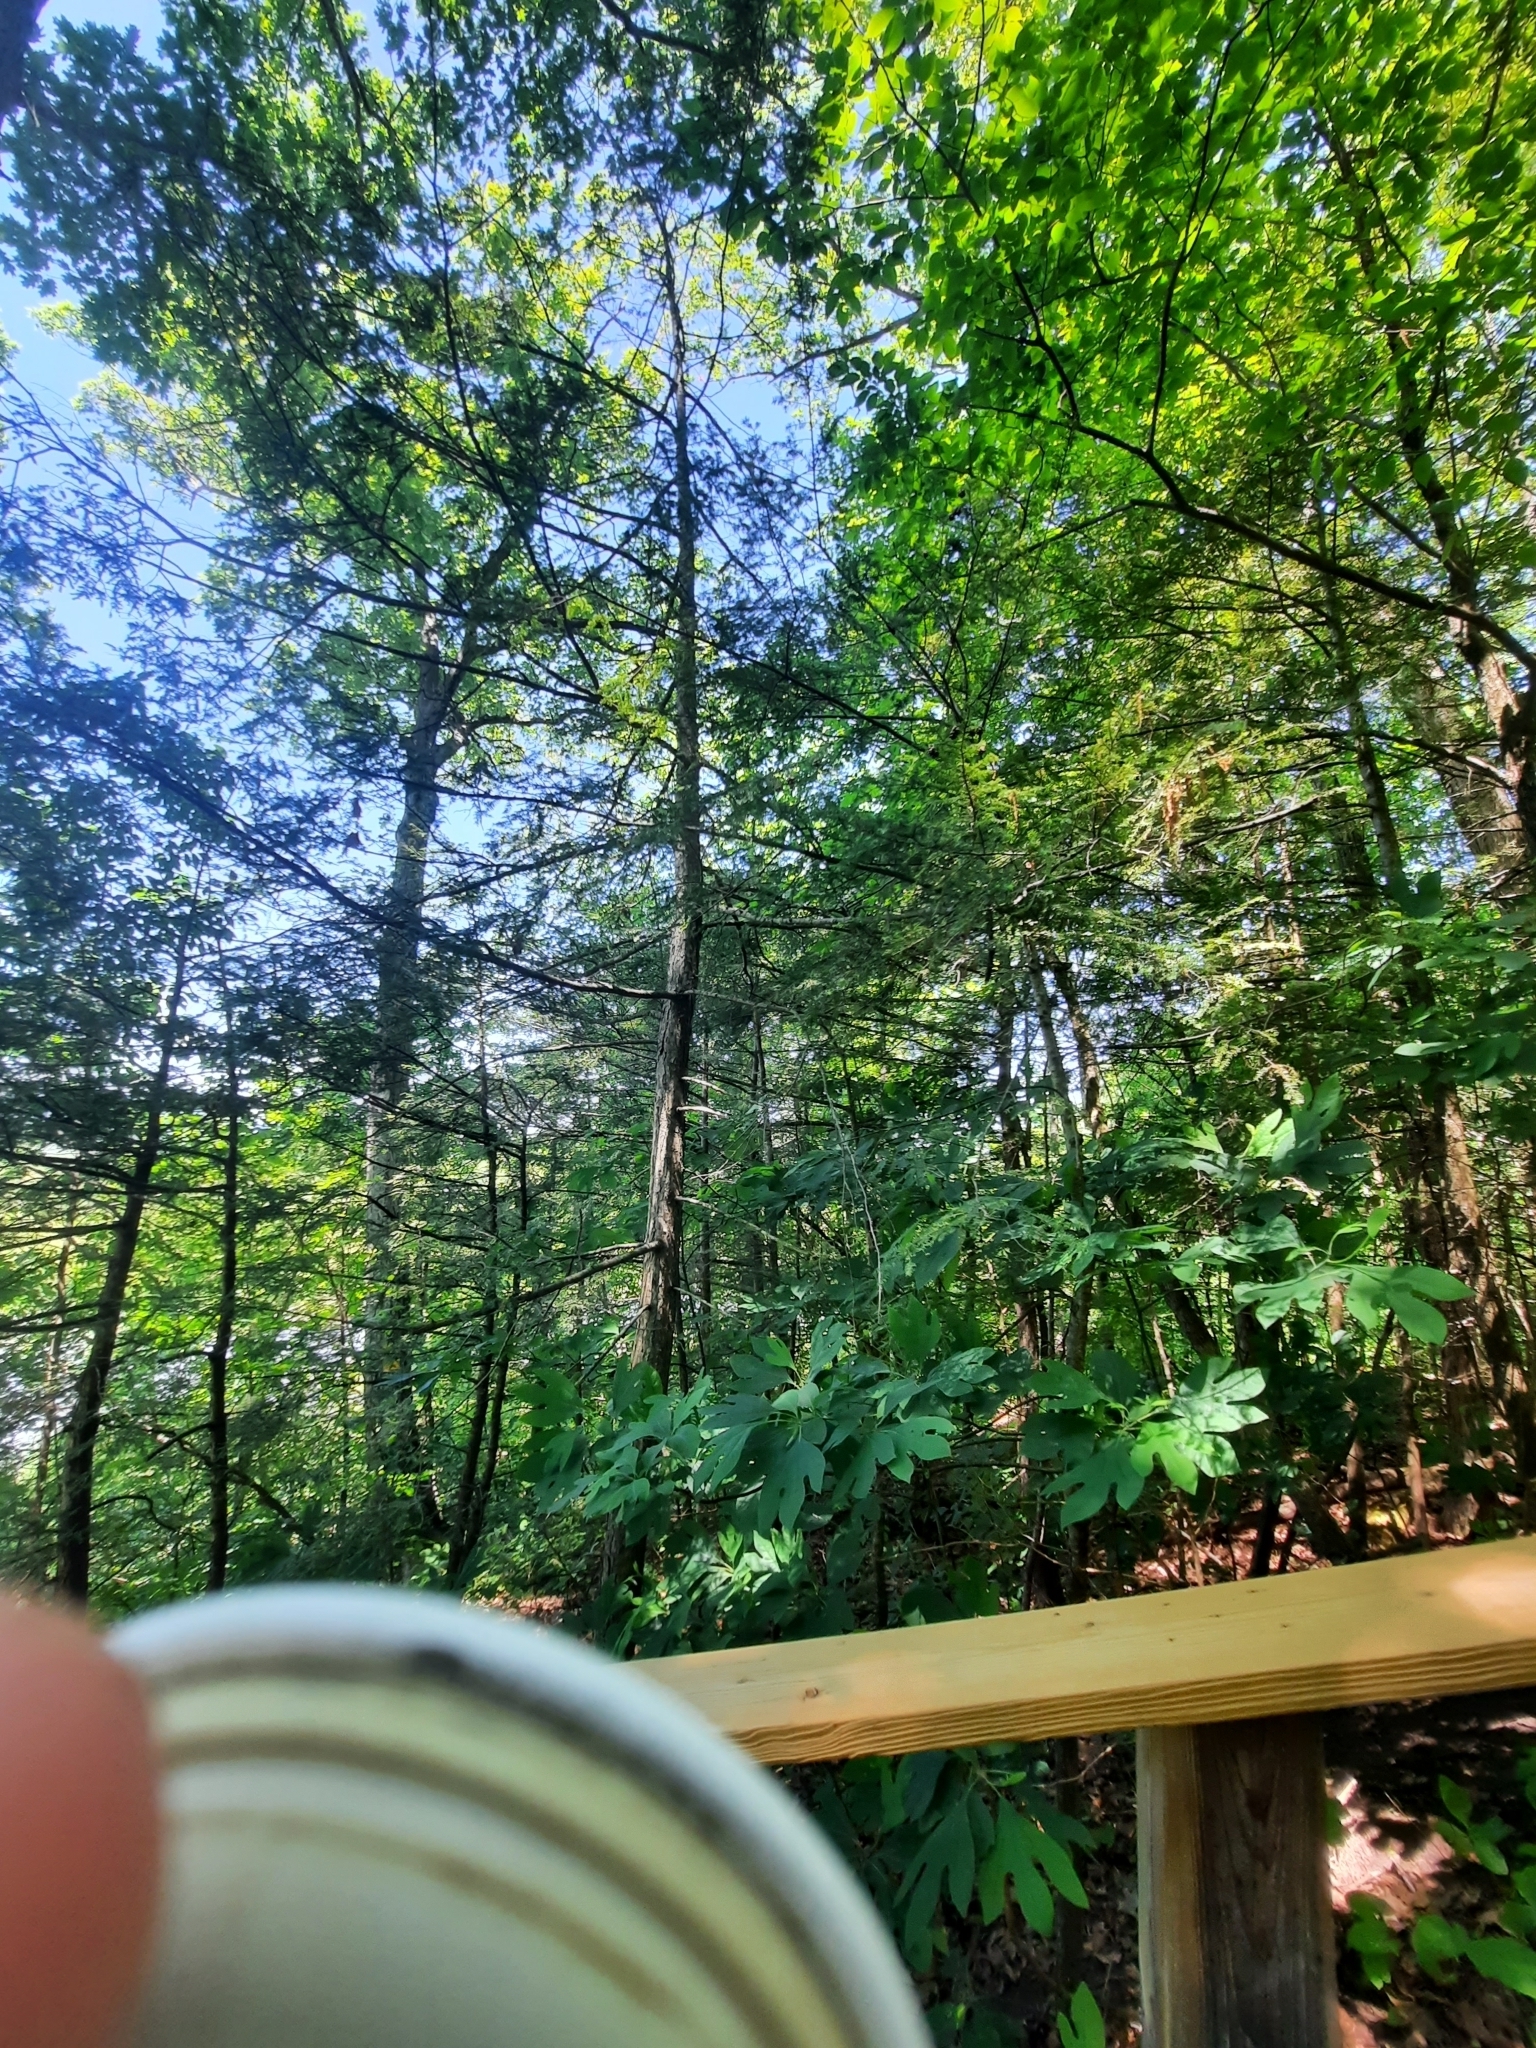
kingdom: Animalia
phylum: Arthropoda
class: Insecta
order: Hemiptera
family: Adelgidae
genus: Adelges
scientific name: Adelges tsugae
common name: Hemlock woolly adelgid
